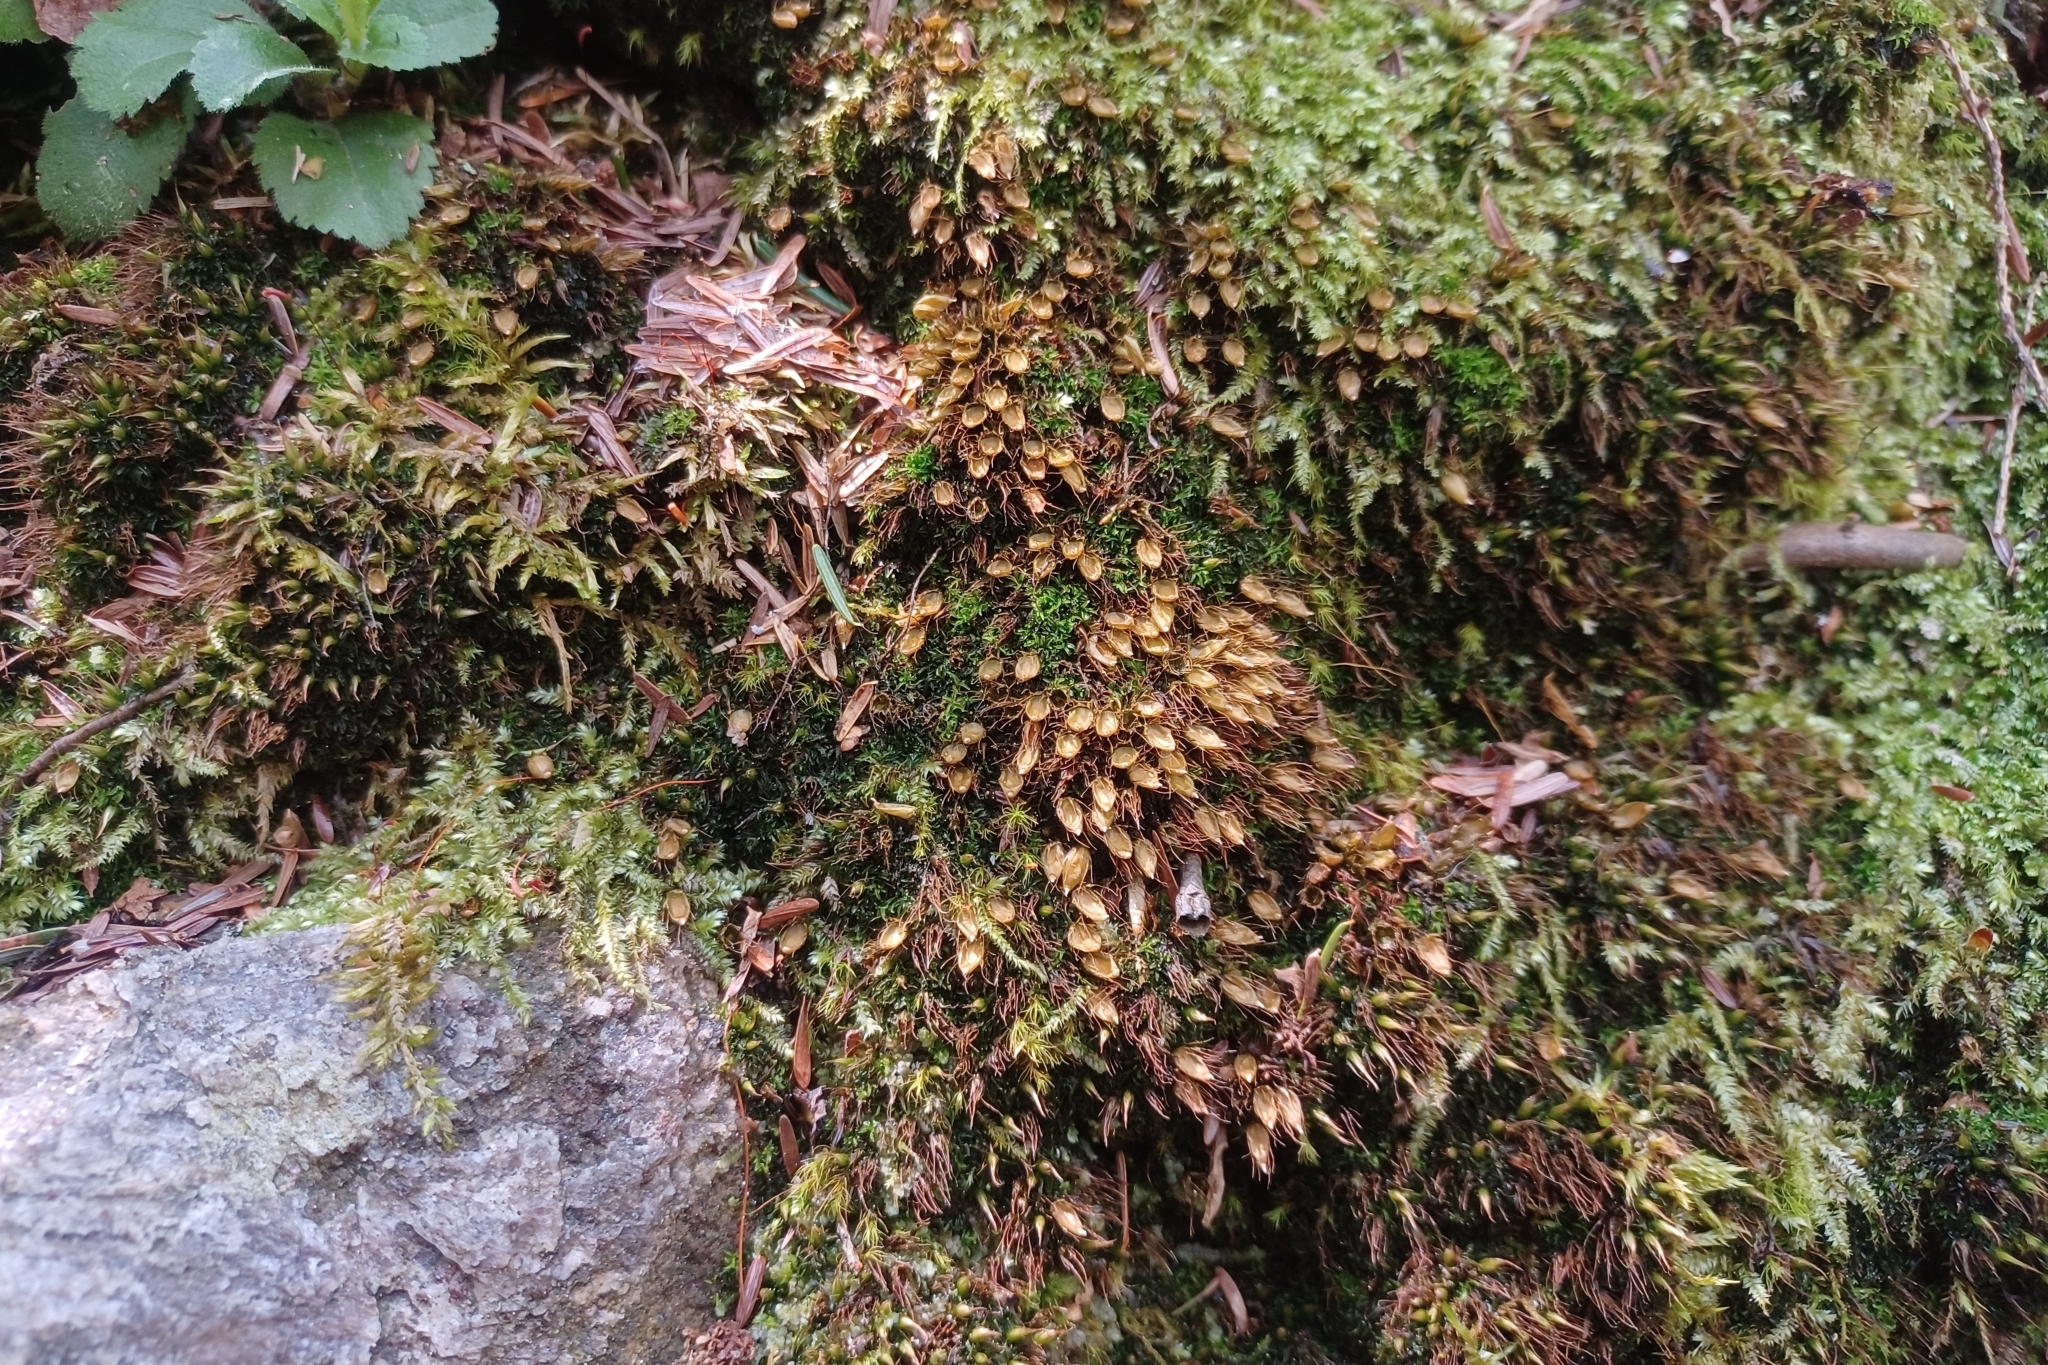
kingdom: Plantae
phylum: Bryophyta
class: Bryopsida
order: Diphysciales
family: Diphysciaceae
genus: Diphyscium
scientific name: Diphyscium foliosum
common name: Nut moss
